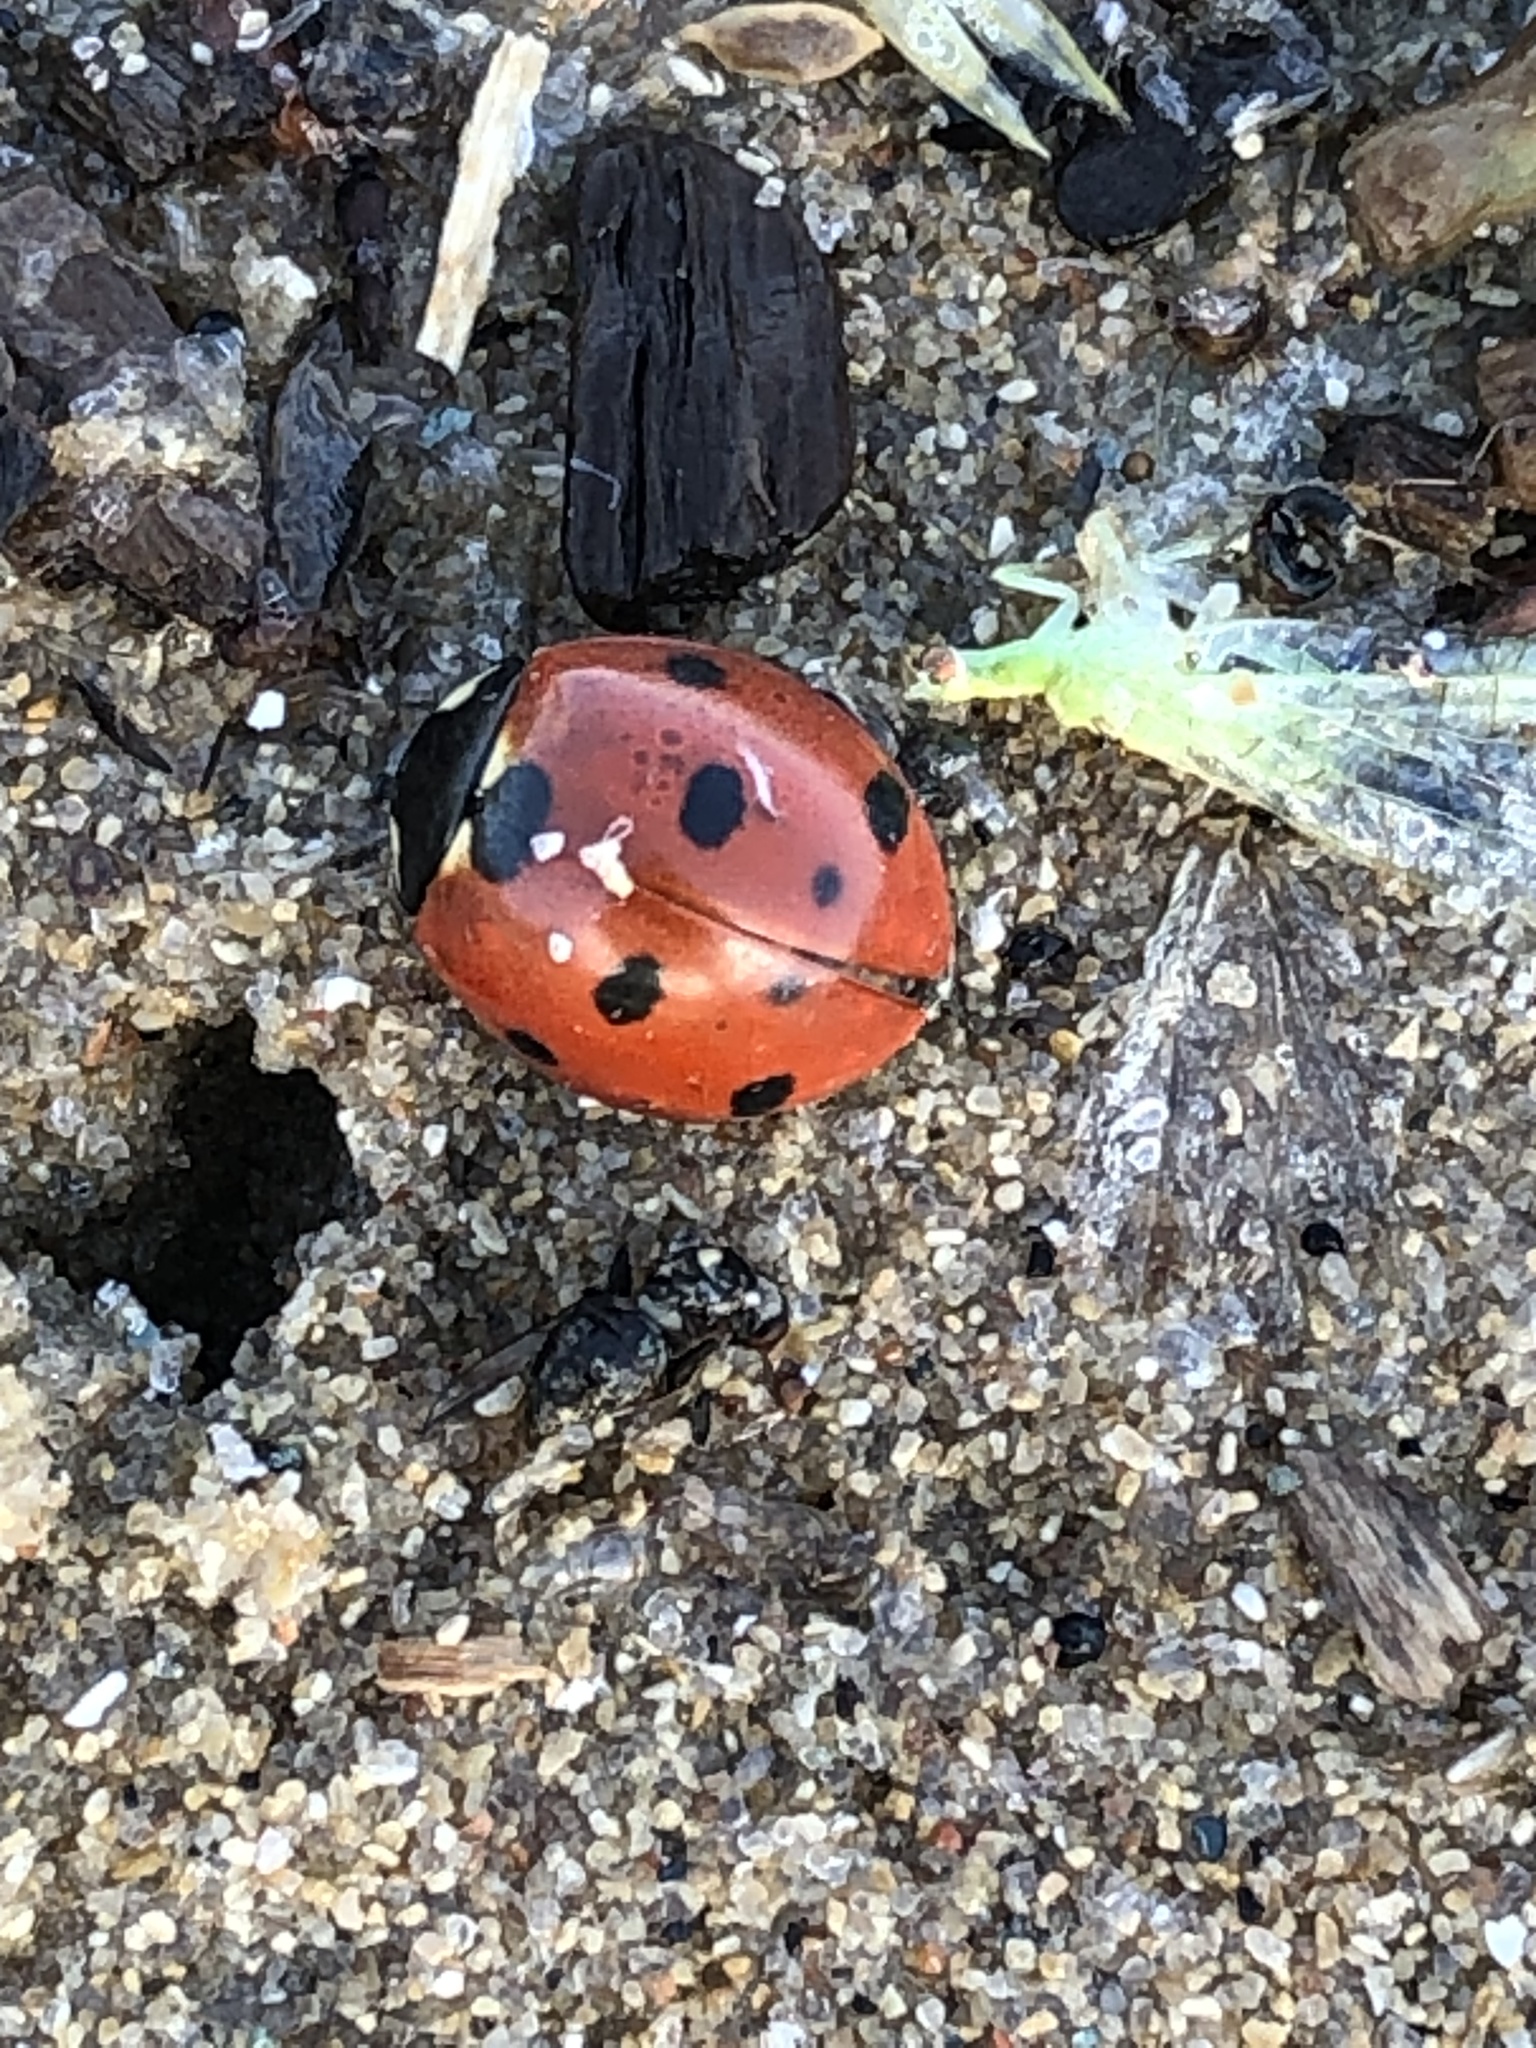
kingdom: Animalia
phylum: Arthropoda
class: Insecta
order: Coleoptera
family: Coccinellidae
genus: Coccinella
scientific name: Coccinella septempunctata
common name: Sevenspotted lady beetle
